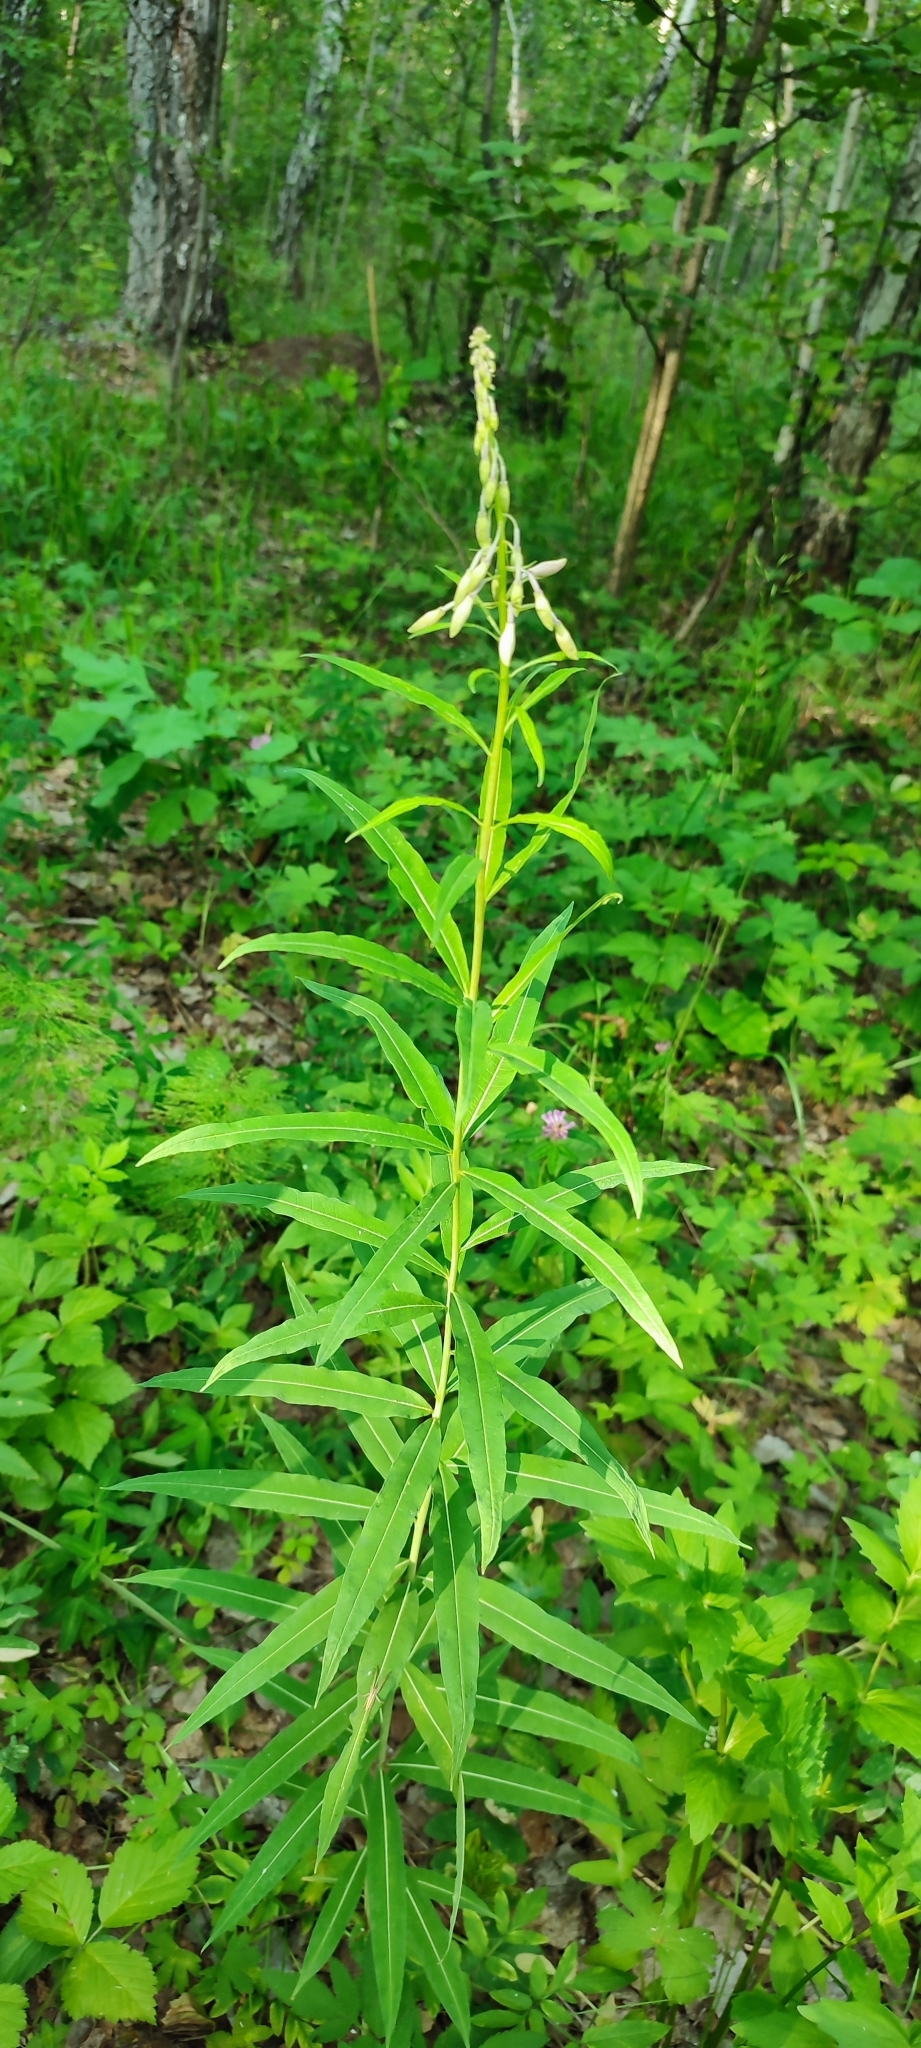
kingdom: Plantae
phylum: Tracheophyta
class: Magnoliopsida
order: Myrtales
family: Onagraceae
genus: Chamaenerion
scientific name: Chamaenerion angustifolium
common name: Fireweed
